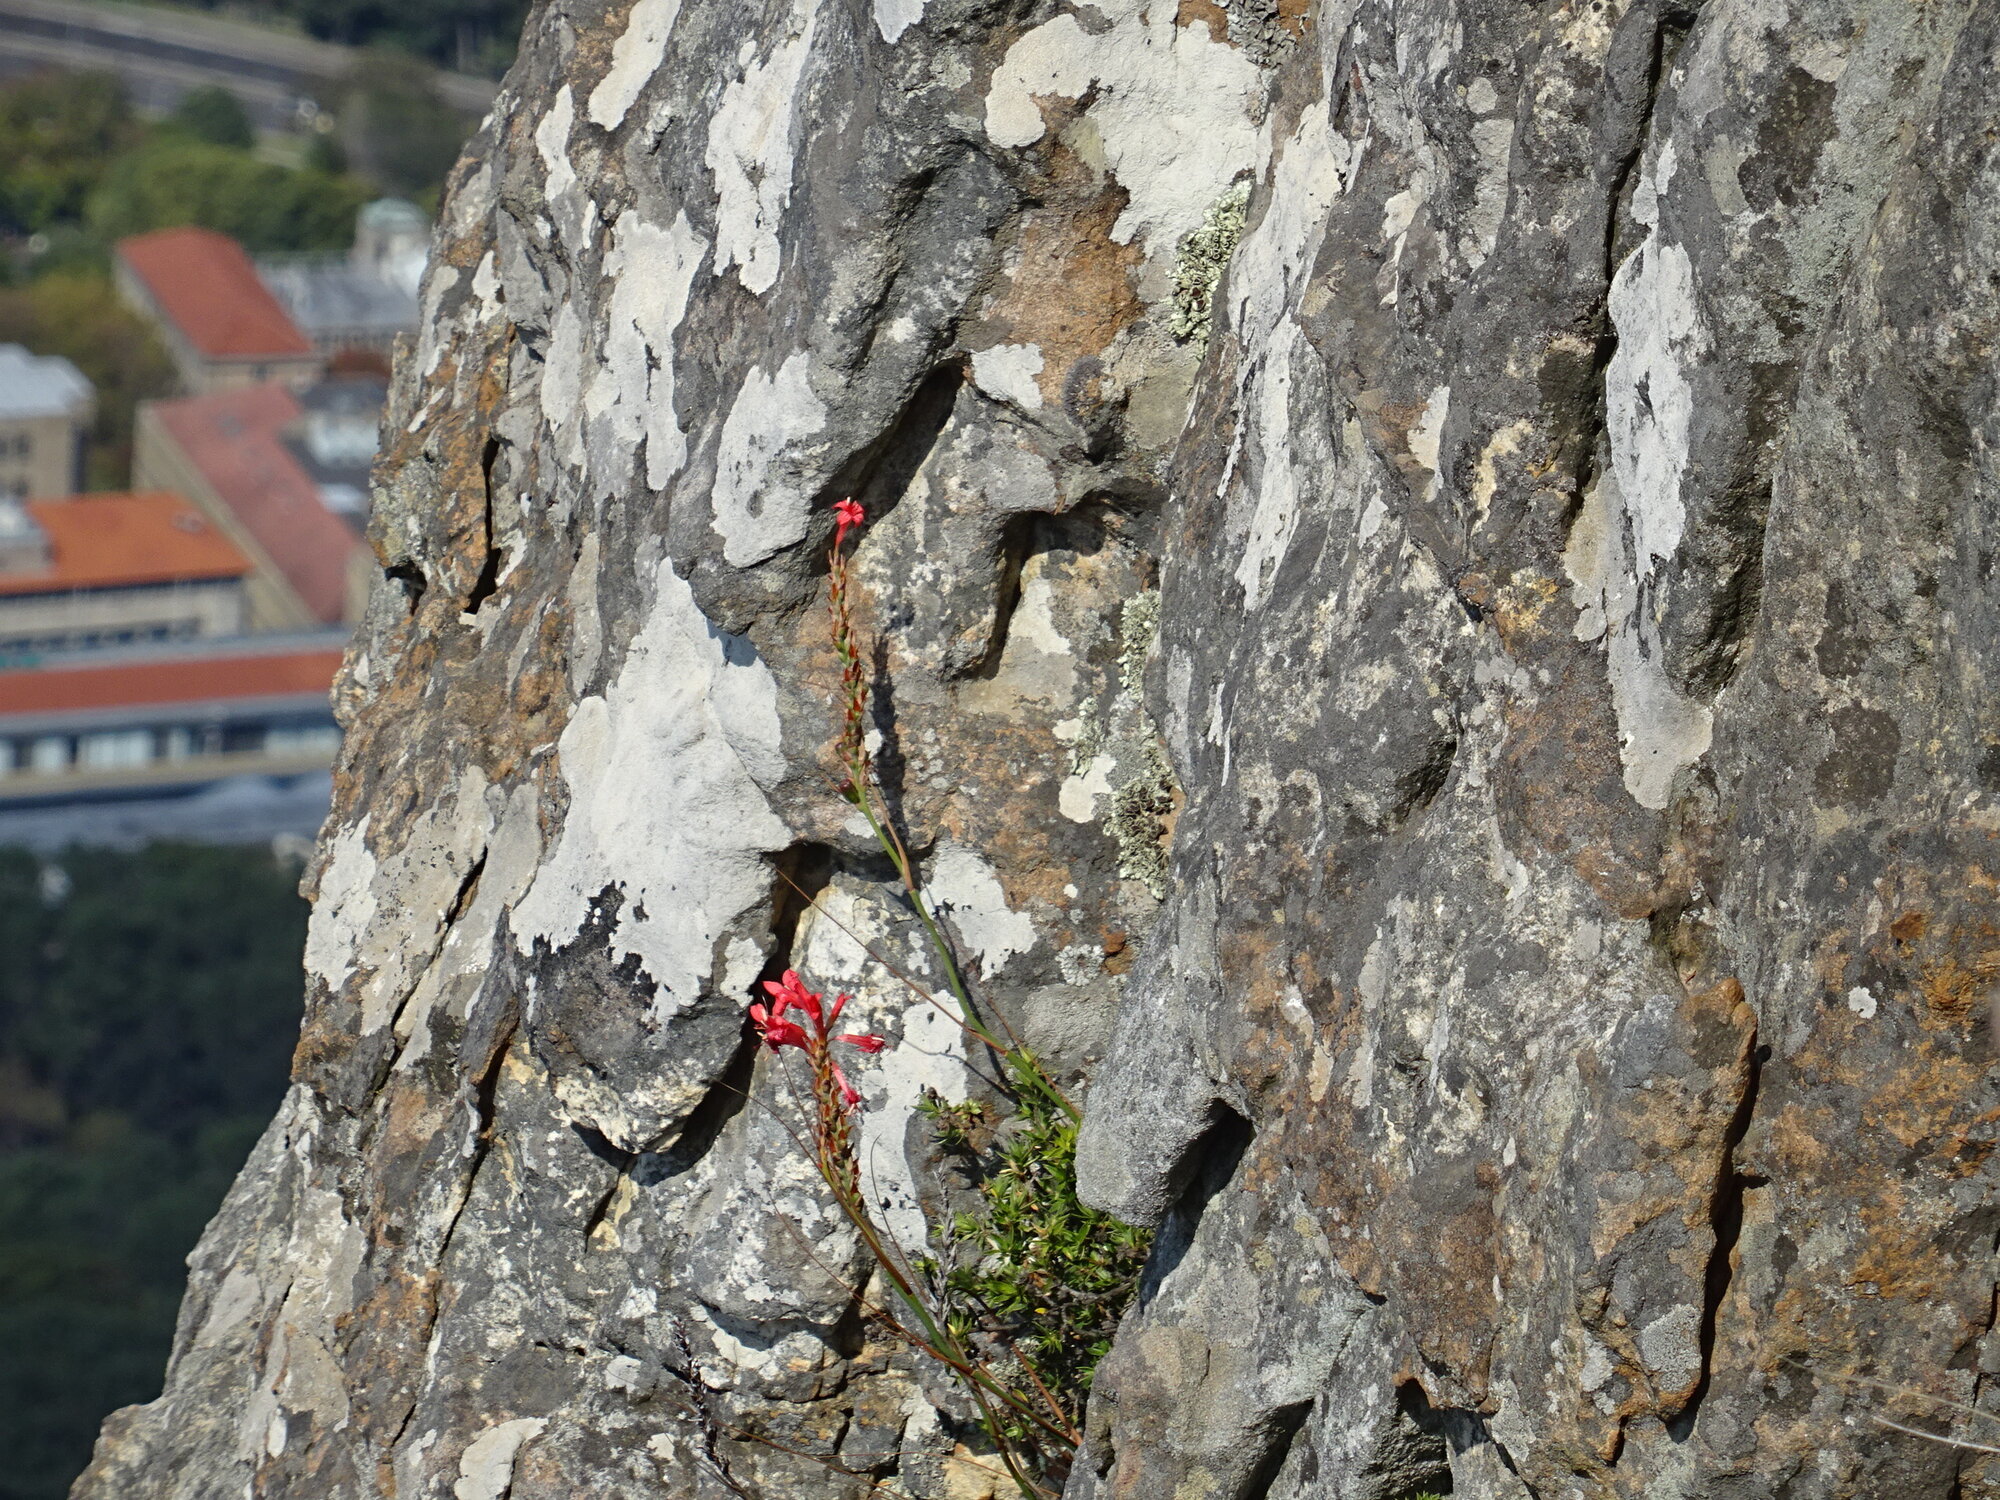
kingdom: Plantae
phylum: Tracheophyta
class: Liliopsida
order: Asparagales
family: Iridaceae
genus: Tritoniopsis
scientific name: Tritoniopsis triticea
